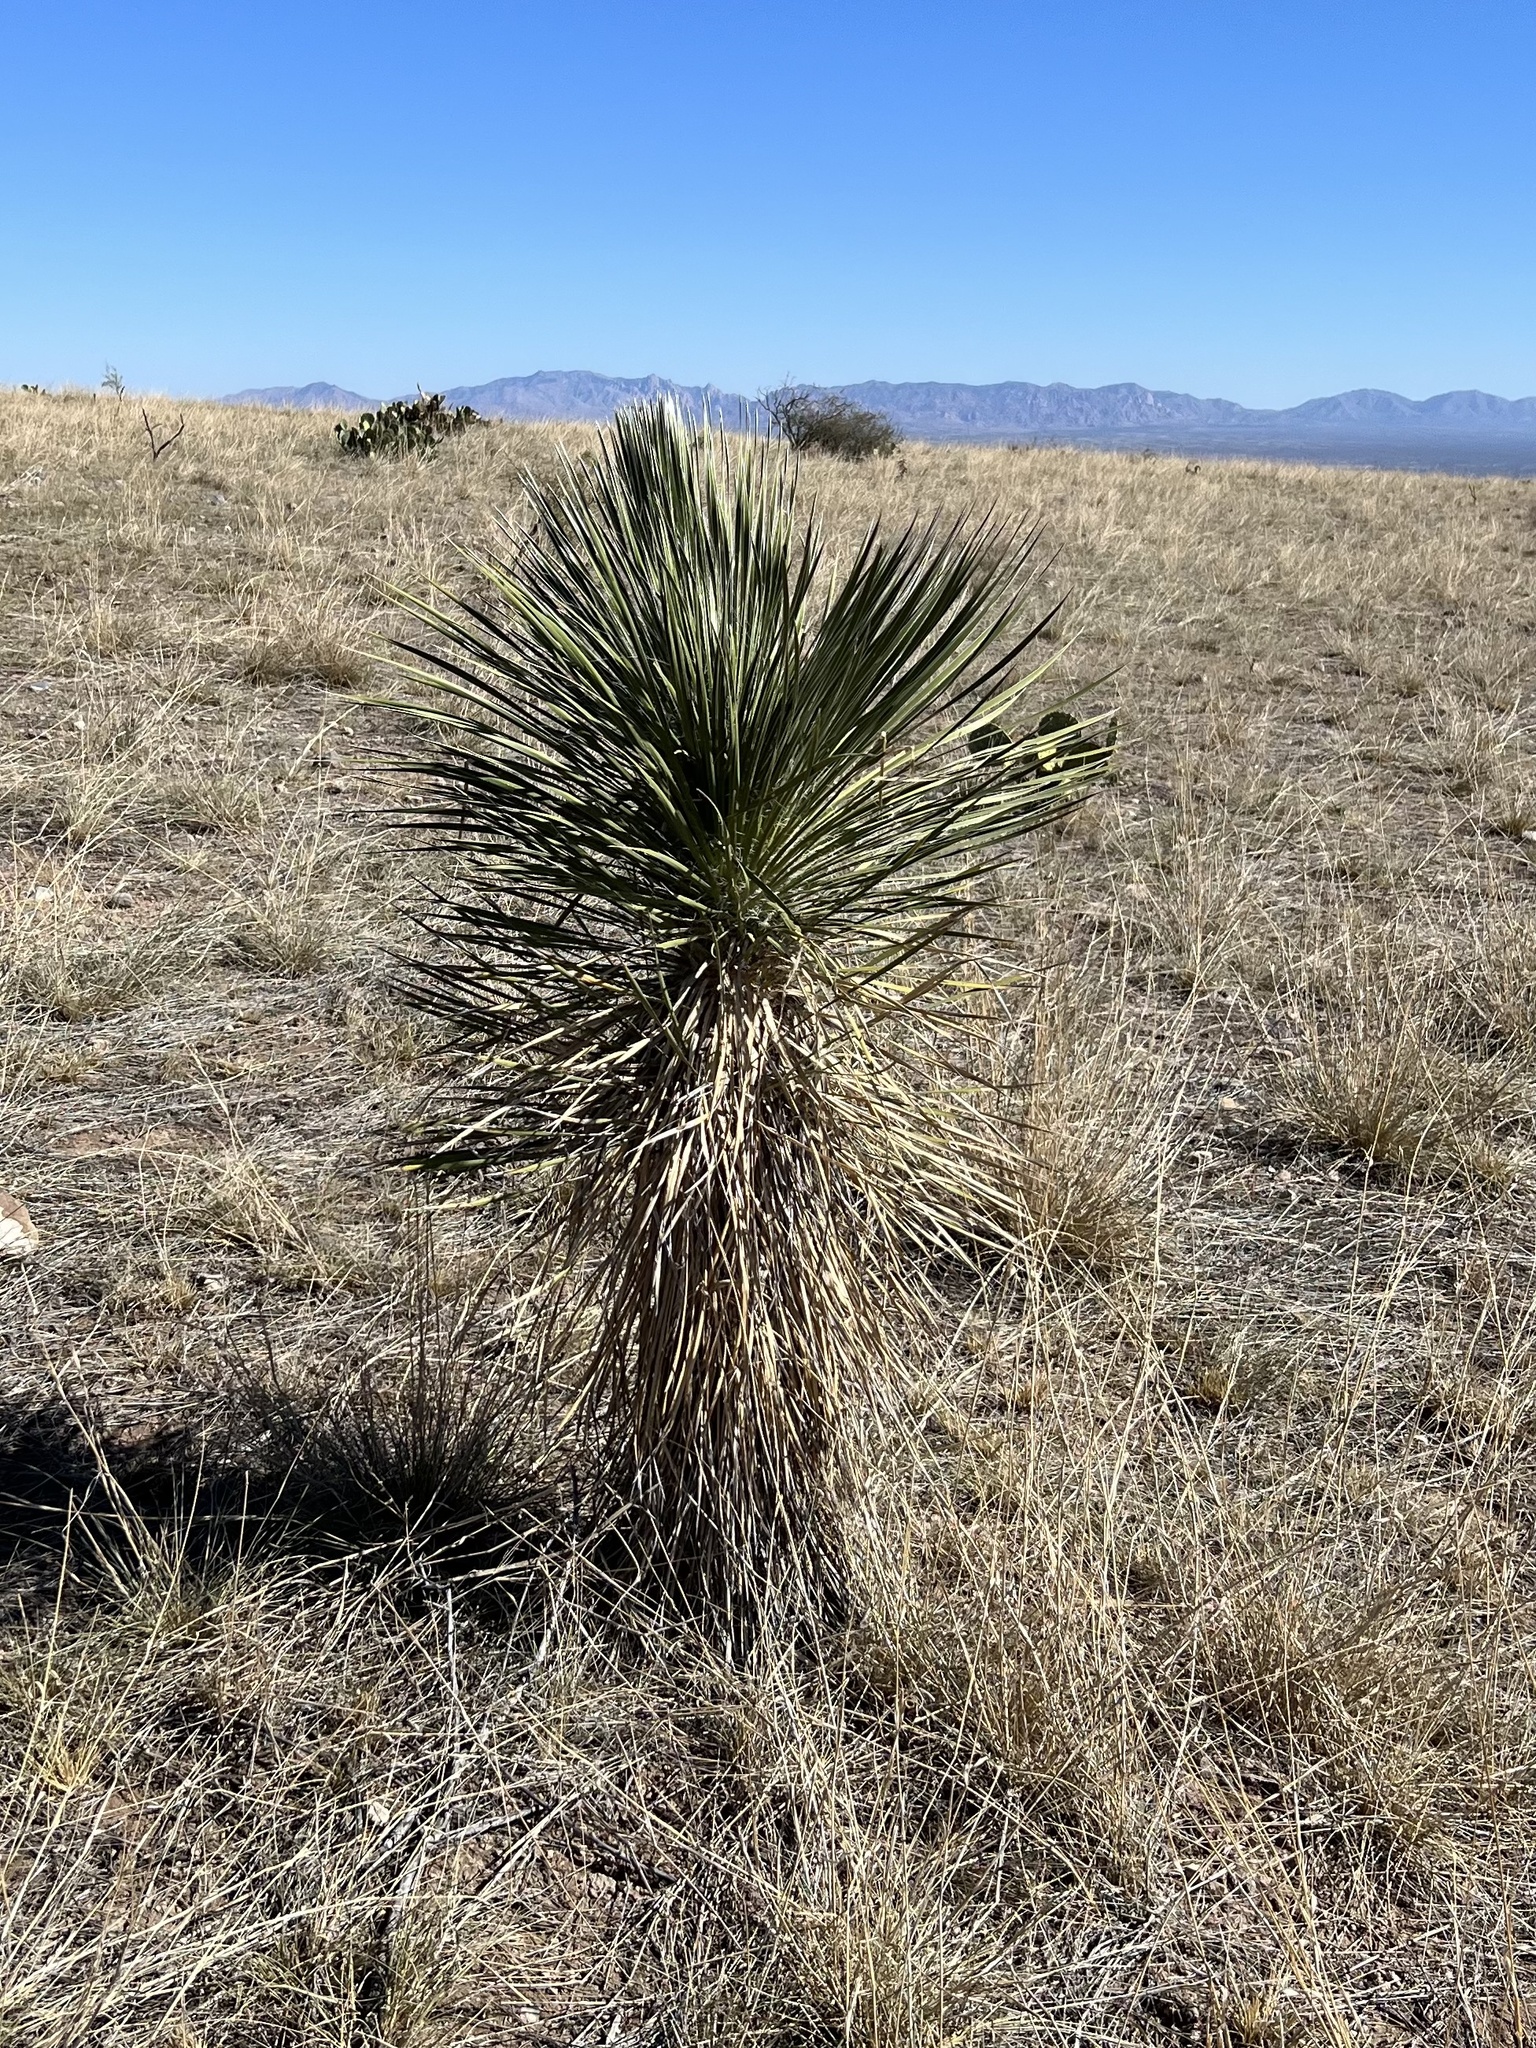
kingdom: Plantae
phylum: Tracheophyta
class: Liliopsida
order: Asparagales
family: Asparagaceae
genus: Yucca
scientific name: Yucca elata
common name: Palmella
